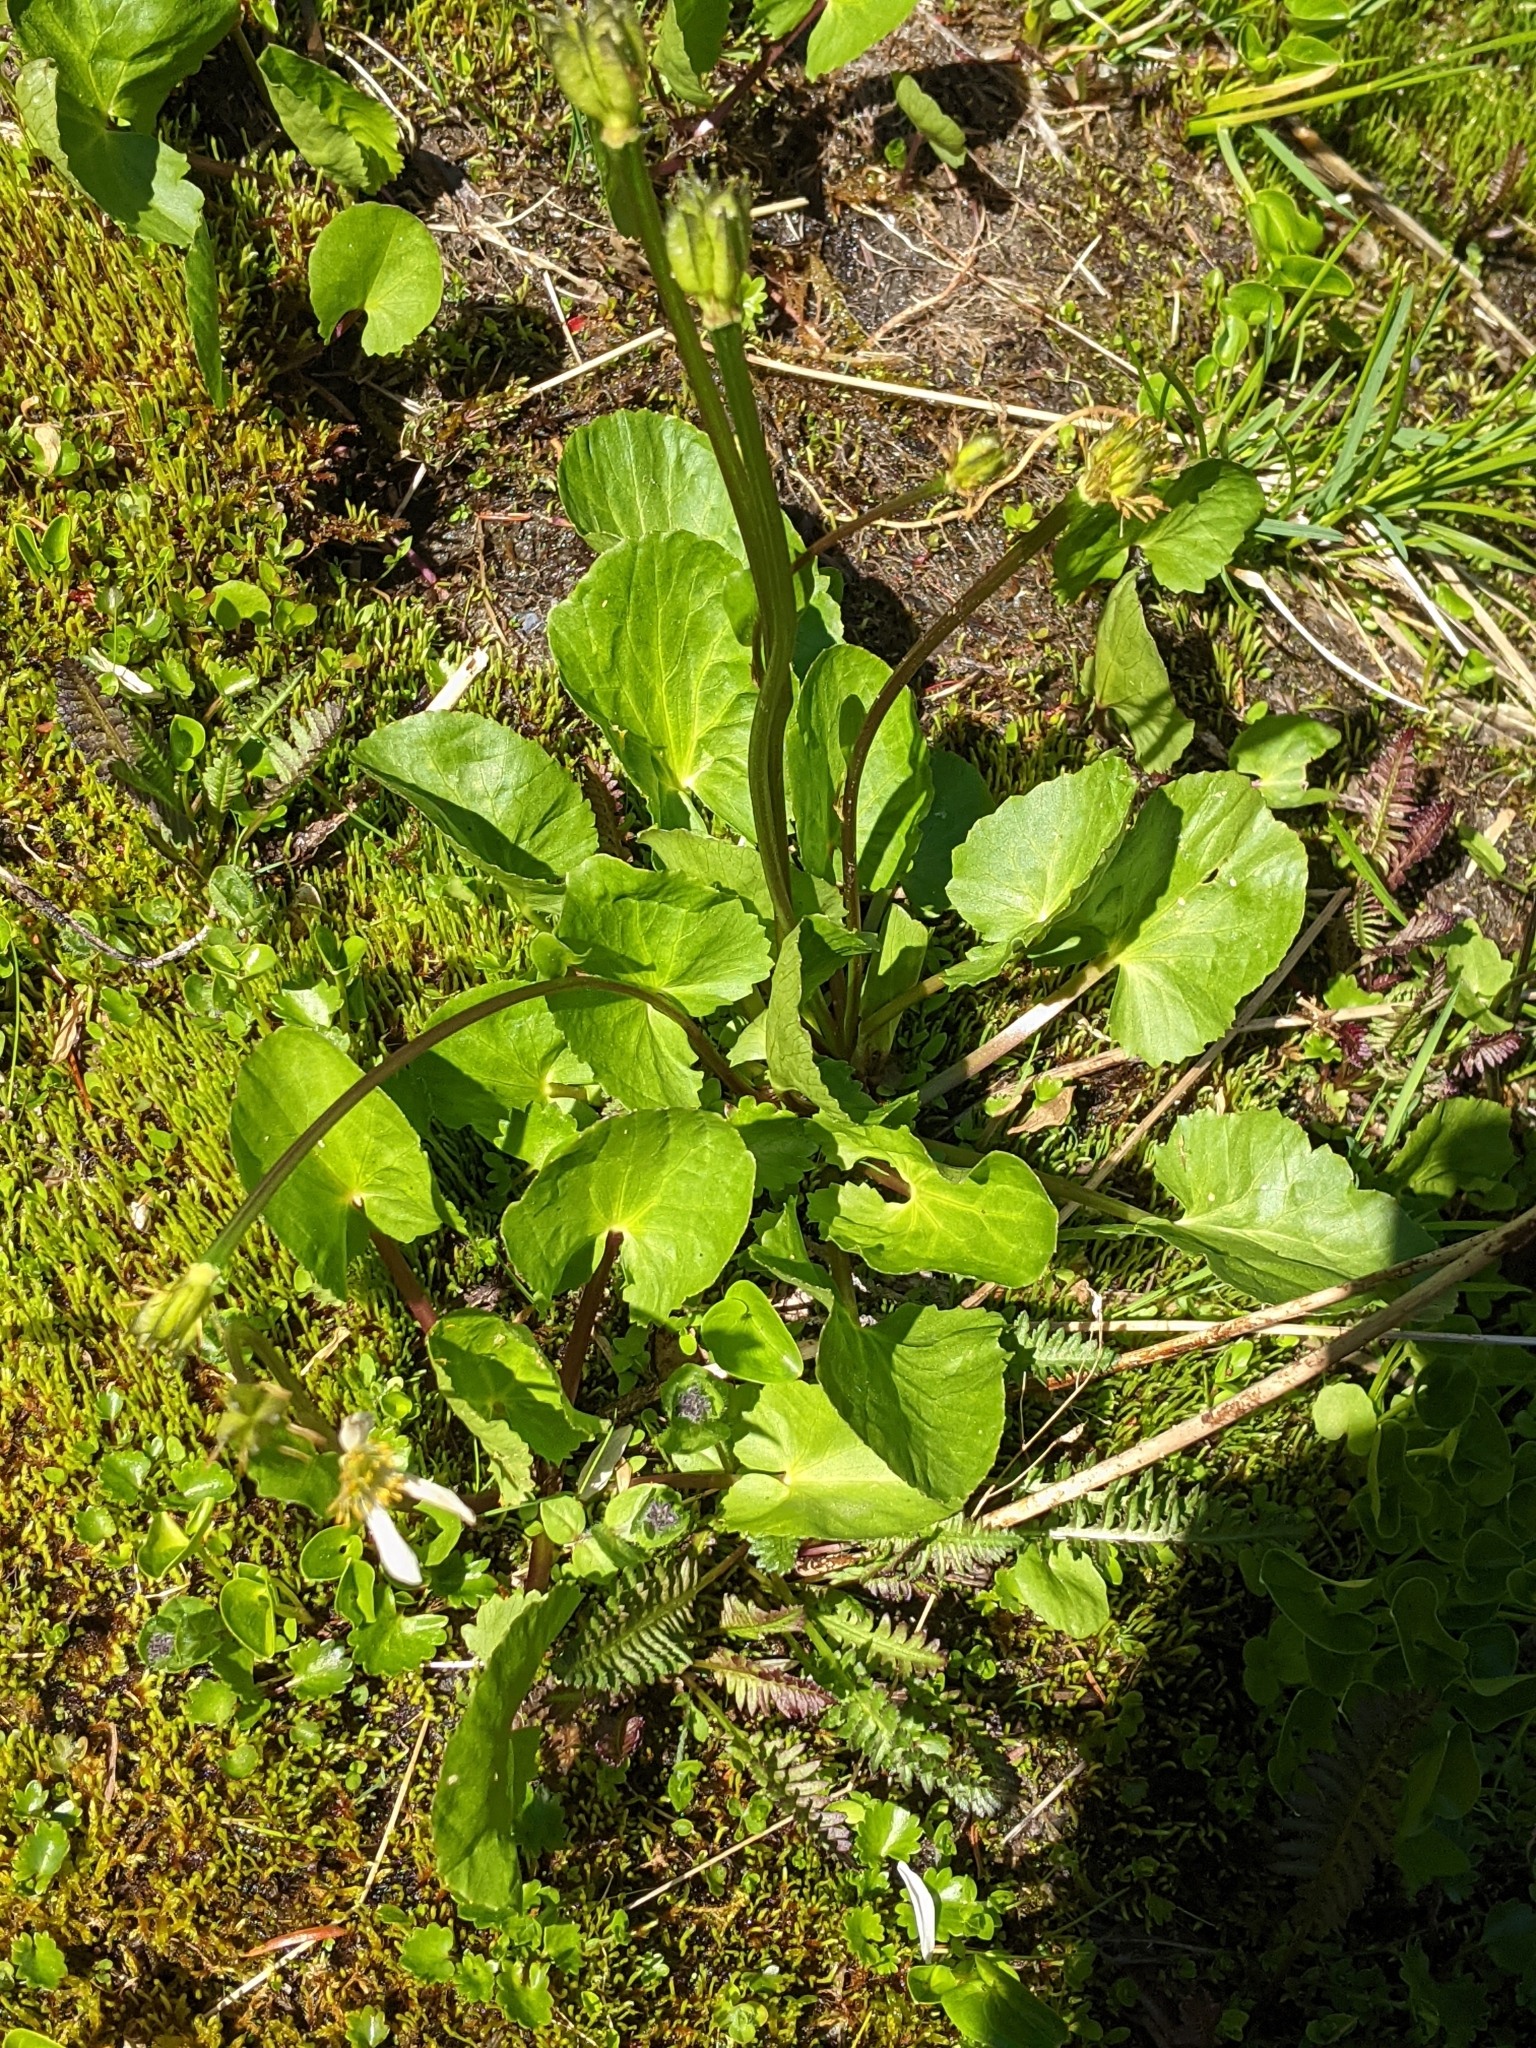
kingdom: Plantae
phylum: Tracheophyta
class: Magnoliopsida
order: Ranunculales
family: Ranunculaceae
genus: Caltha
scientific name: Caltha leptosepala
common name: Elkslip
